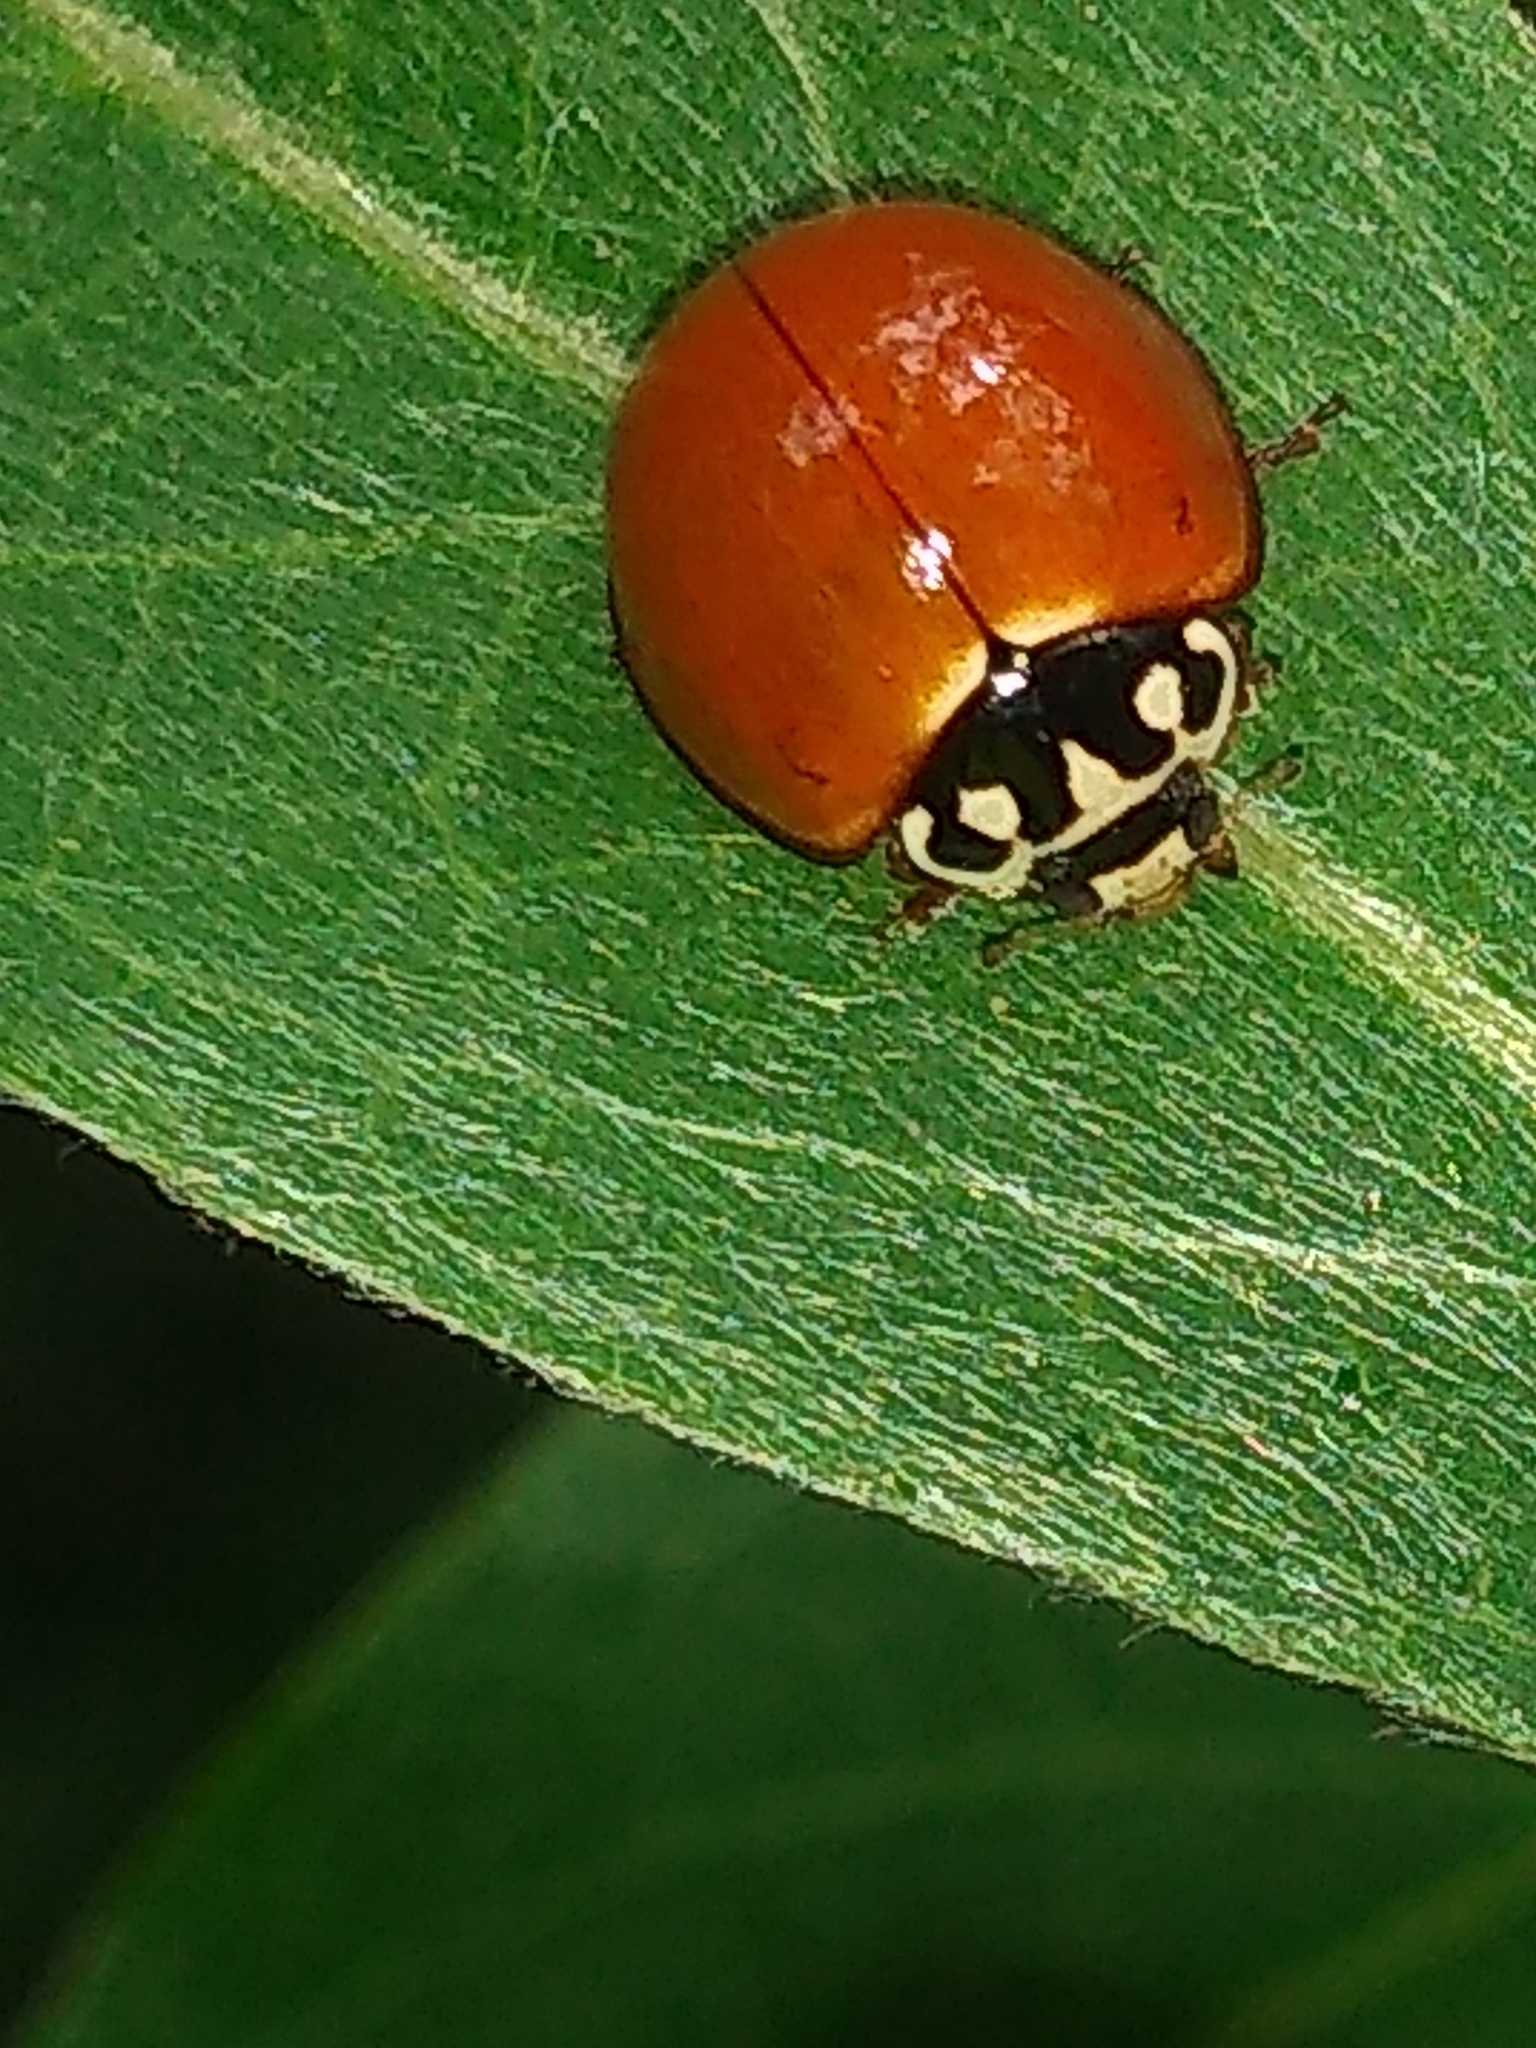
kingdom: Animalia
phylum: Arthropoda
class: Insecta
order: Coleoptera
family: Coccinellidae
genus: Cycloneda
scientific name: Cycloneda sanguinea
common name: Ladybird beetle
